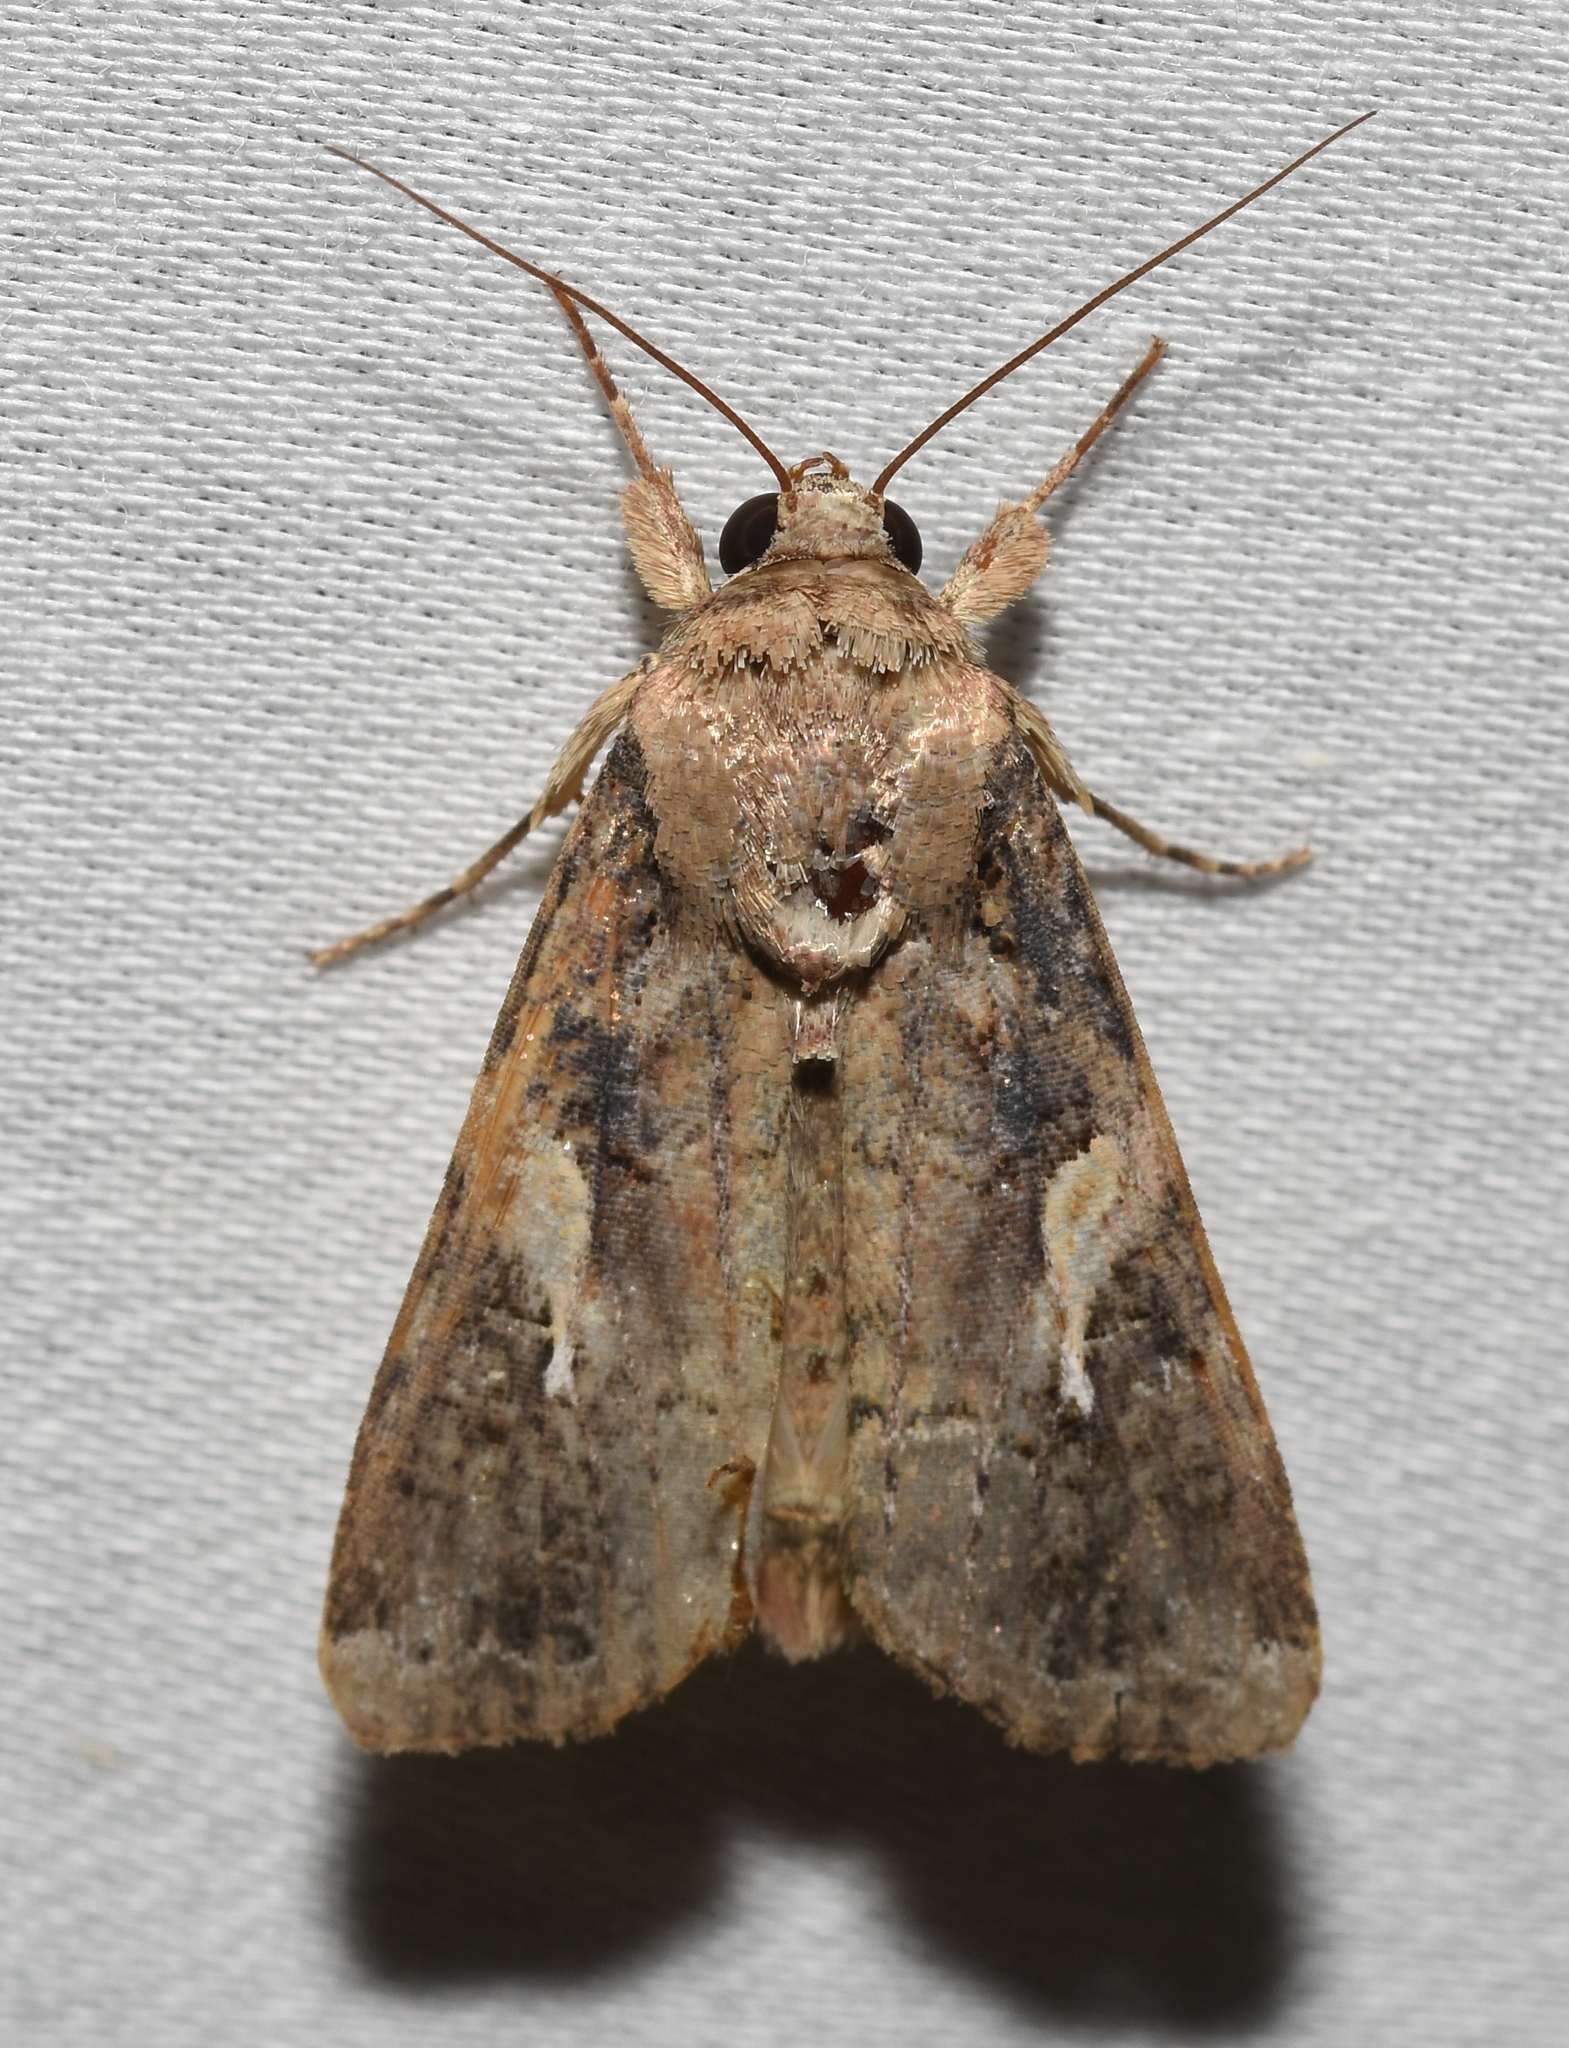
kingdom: Animalia
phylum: Arthropoda
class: Insecta
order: Lepidoptera
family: Noctuidae
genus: Spodoptera
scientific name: Spodoptera frugiperda
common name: Fall armyworm
